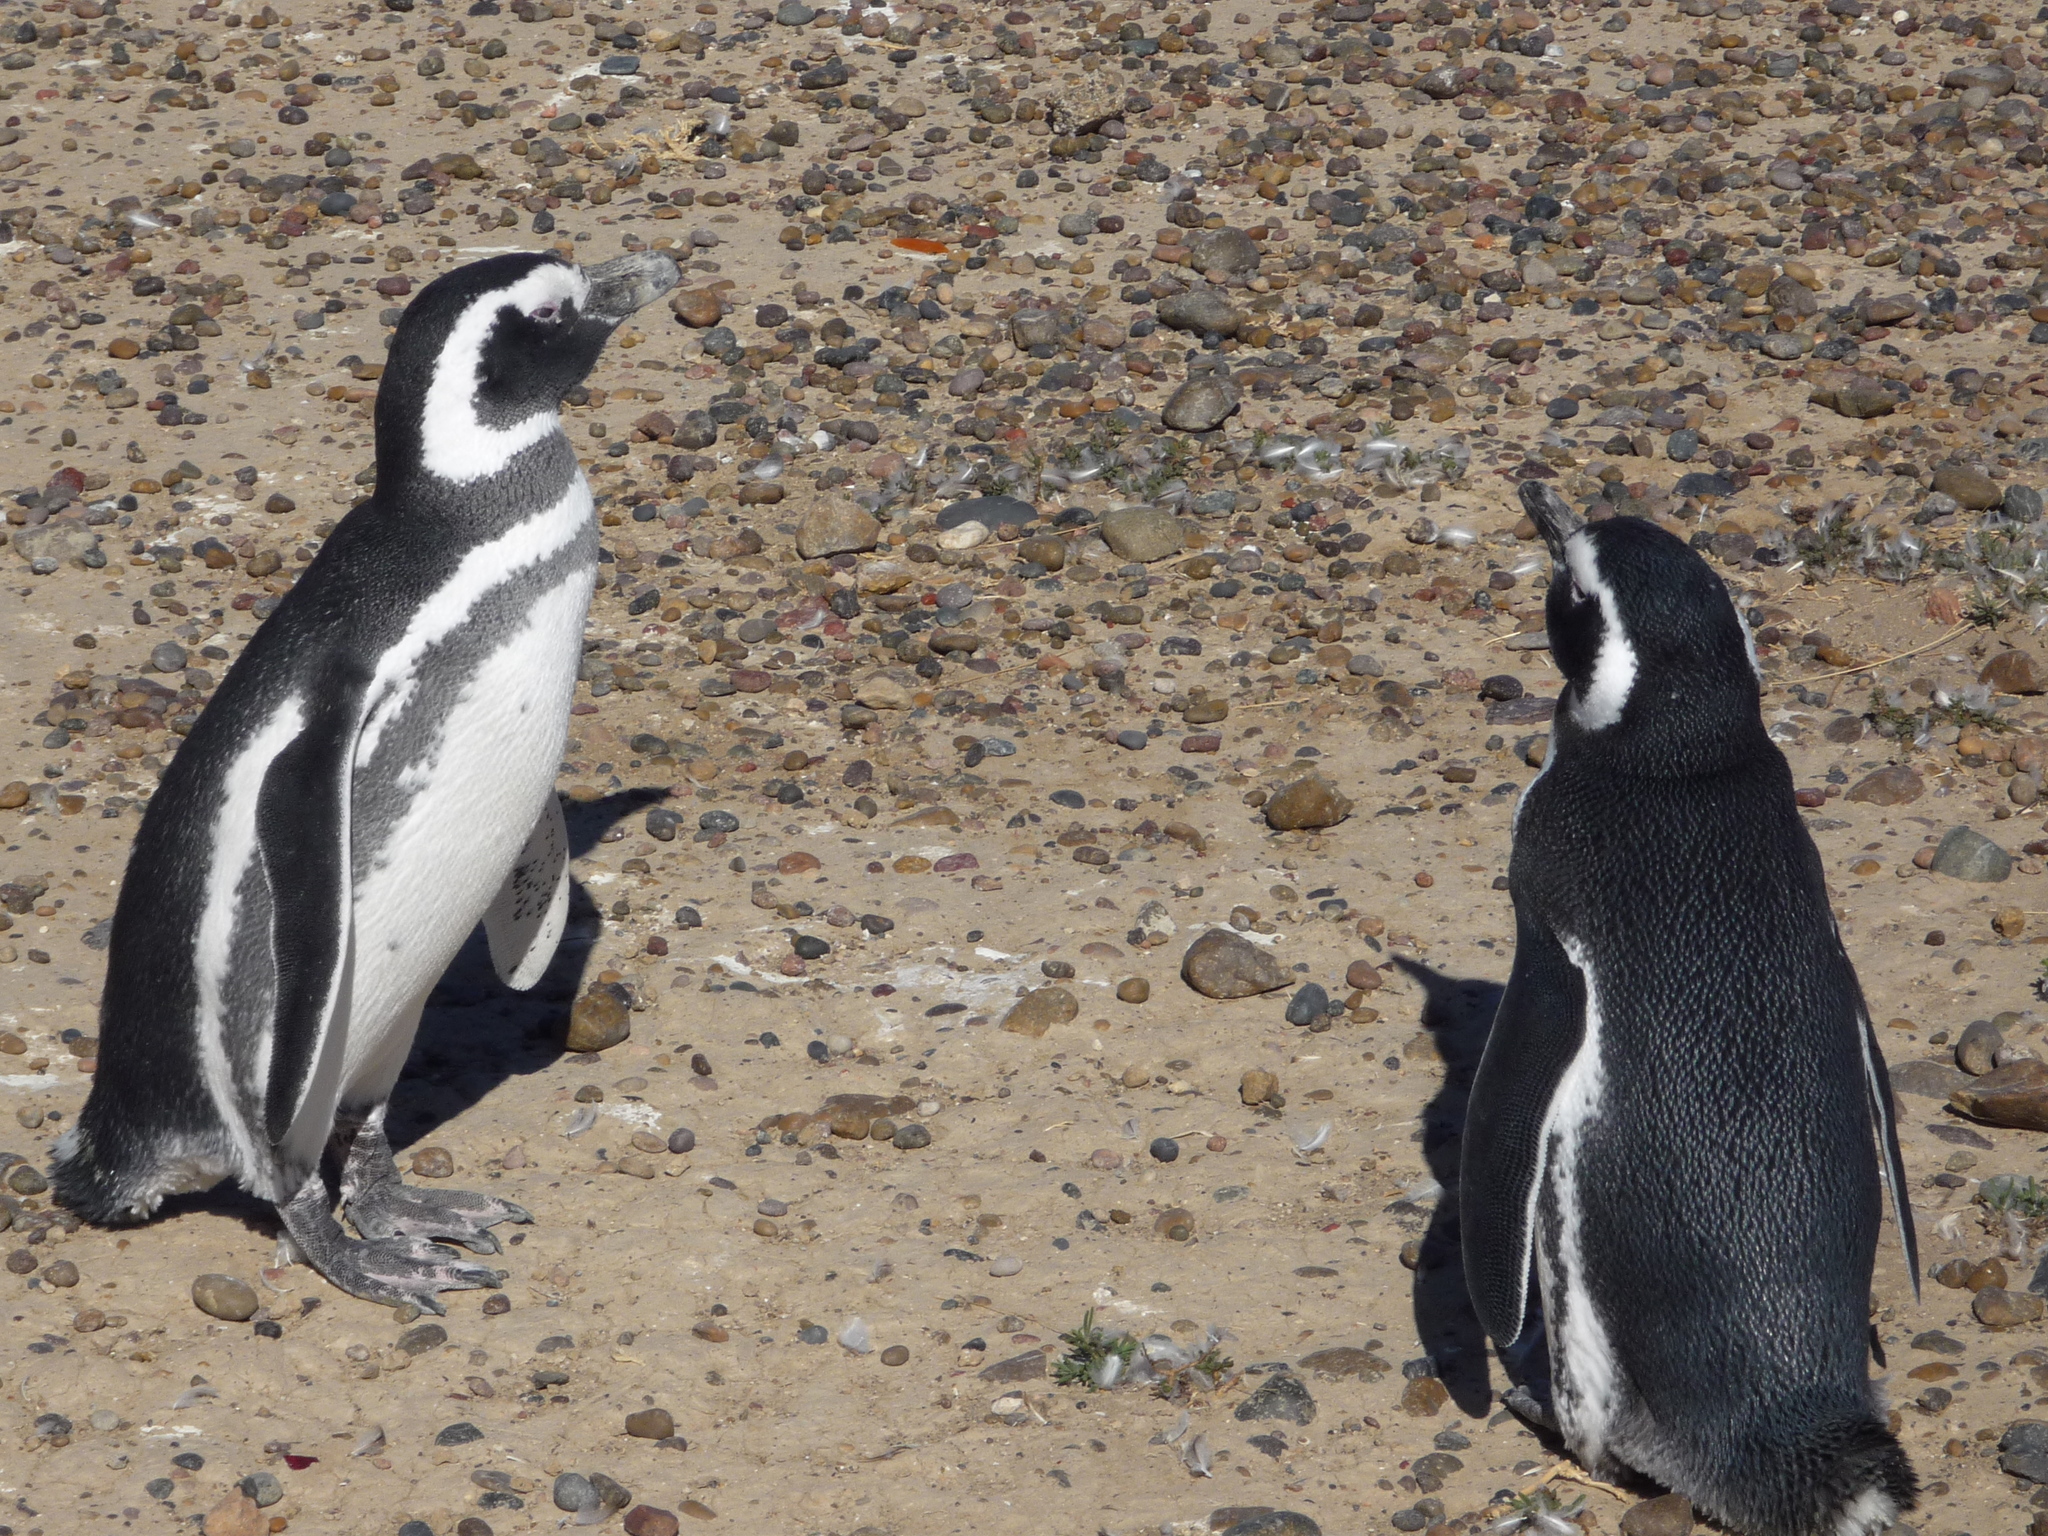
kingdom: Animalia
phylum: Chordata
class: Aves
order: Sphenisciformes
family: Spheniscidae
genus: Spheniscus
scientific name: Spheniscus magellanicus
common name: Magellanic penguin
